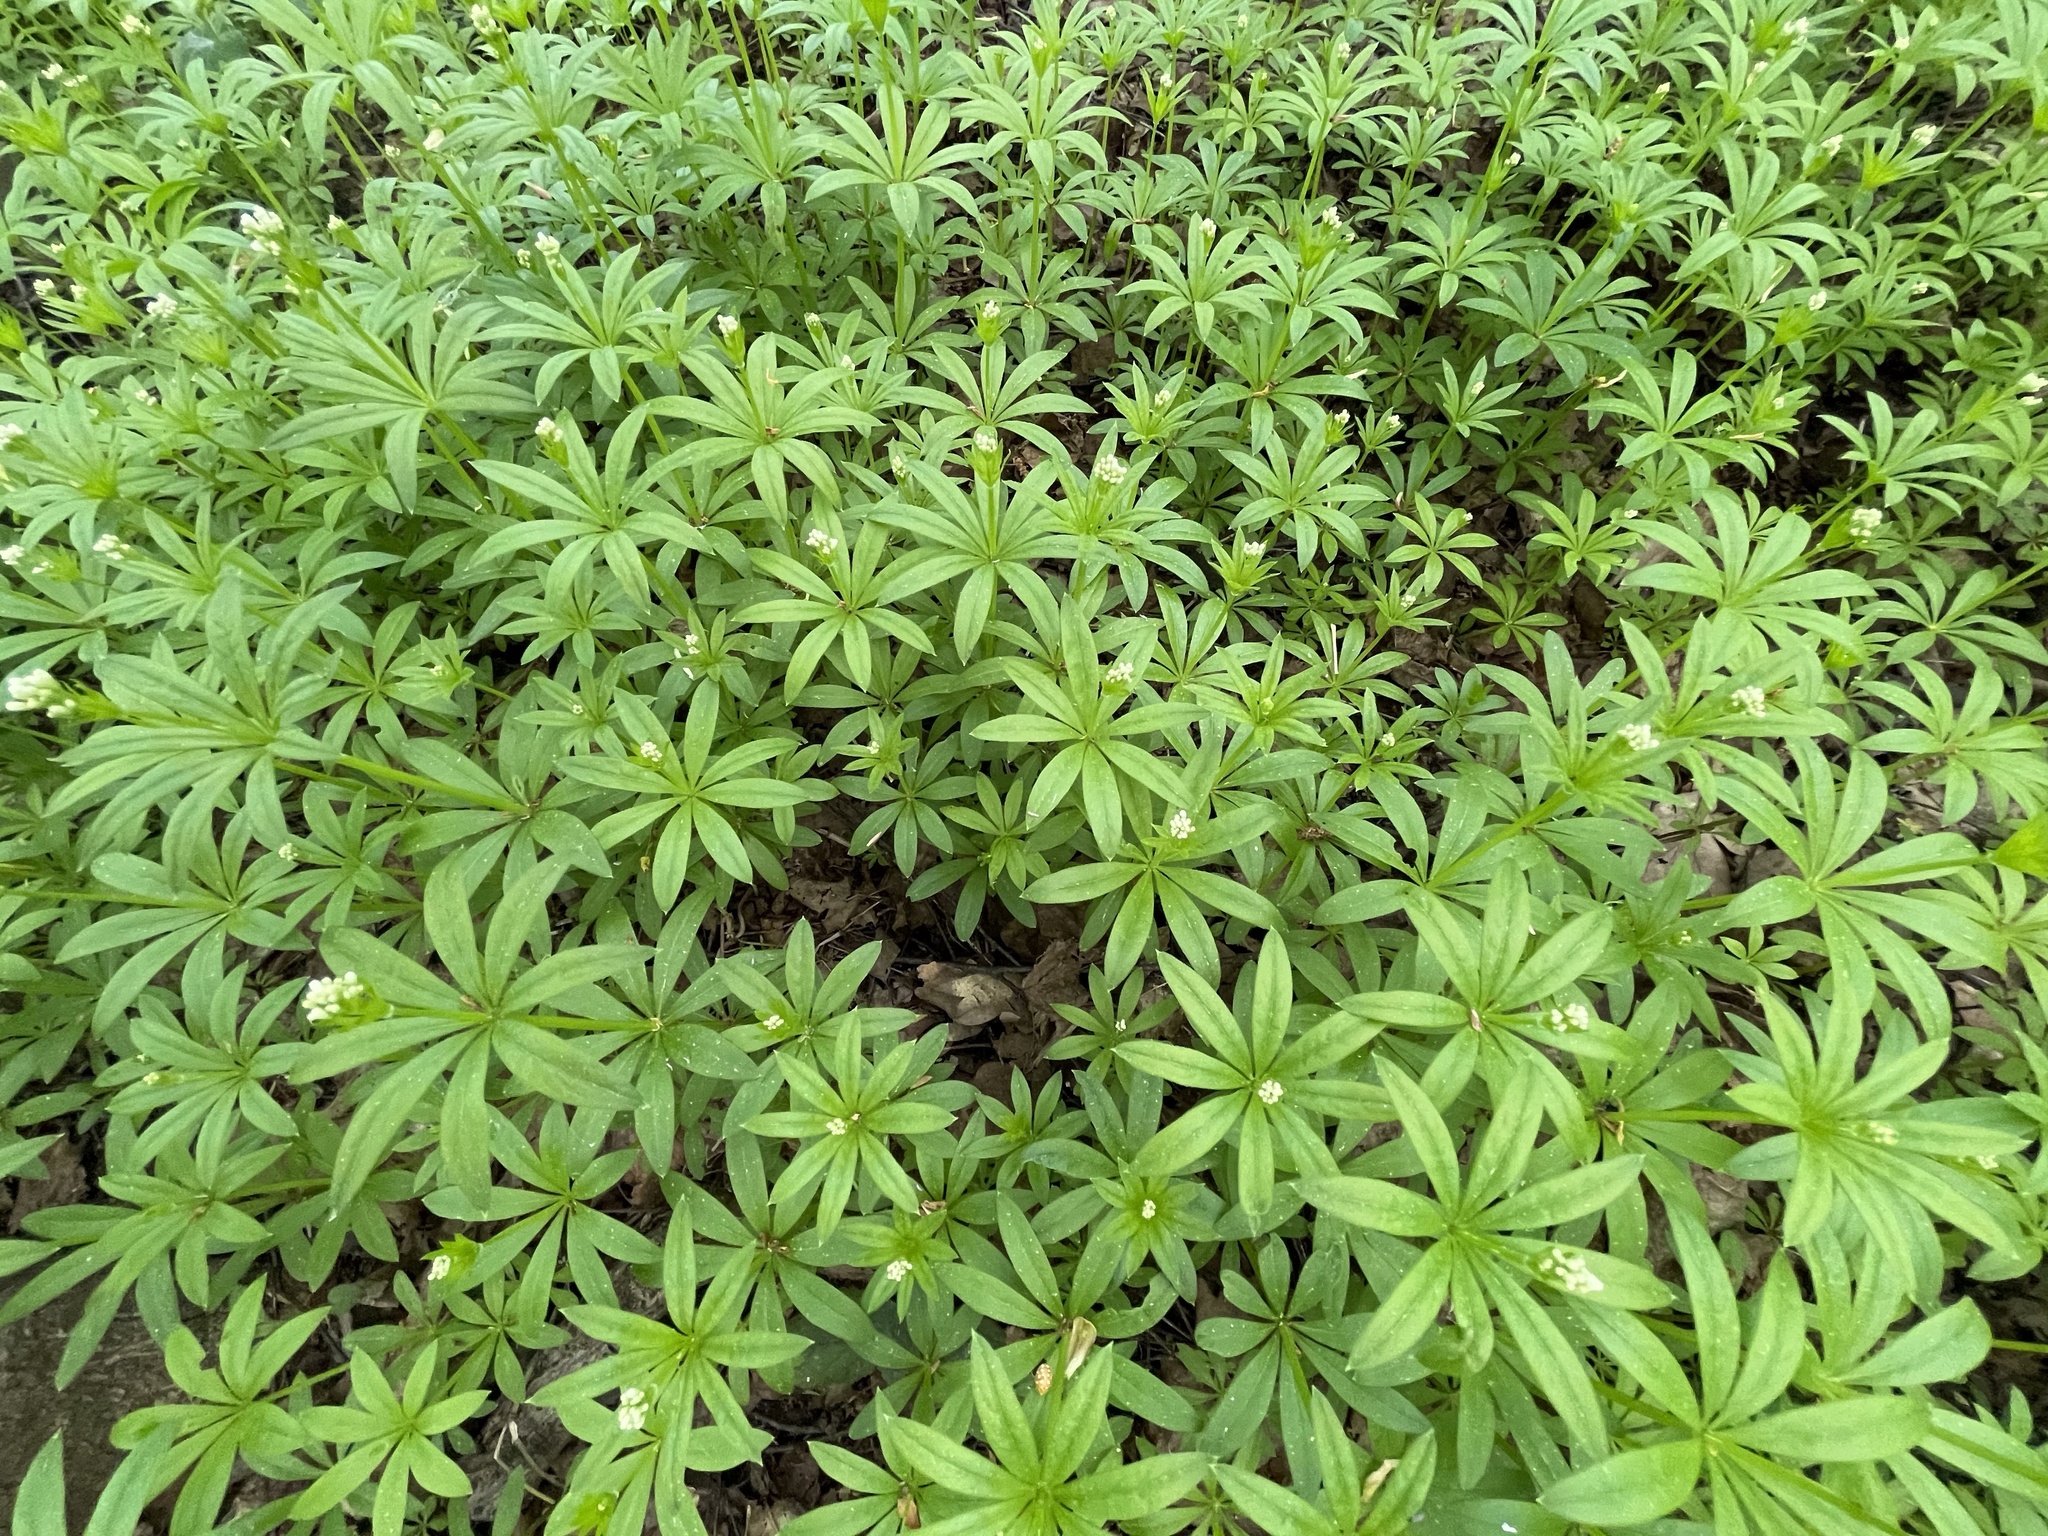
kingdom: Plantae
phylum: Tracheophyta
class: Magnoliopsida
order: Gentianales
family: Rubiaceae
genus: Galium
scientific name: Galium odoratum
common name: Sweet woodruff
